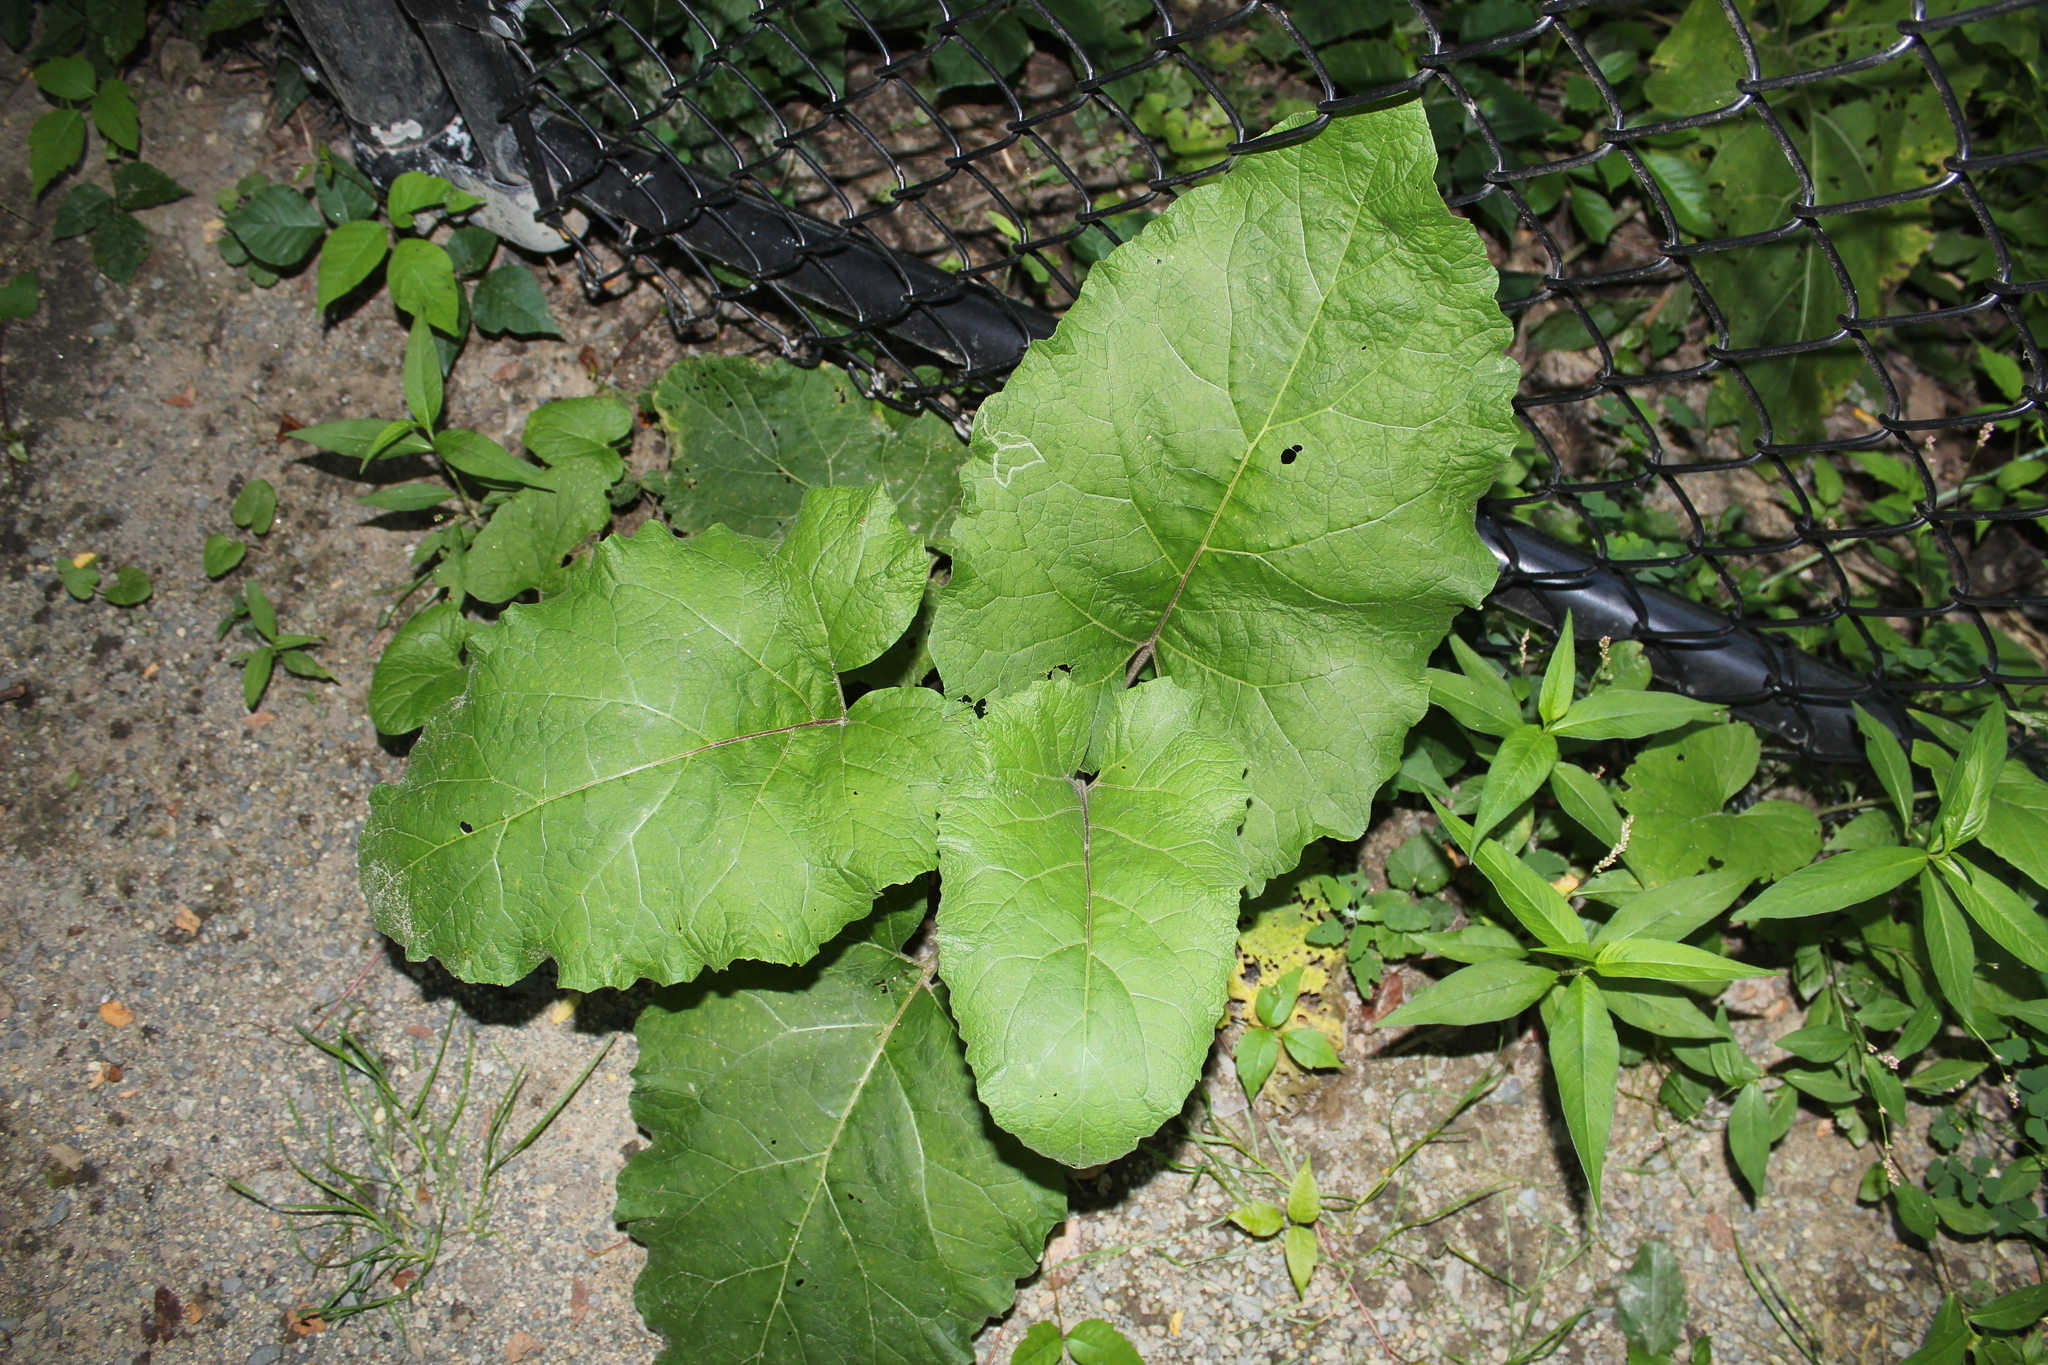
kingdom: Plantae
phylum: Tracheophyta
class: Magnoliopsida
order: Asterales
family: Asteraceae
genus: Arctium
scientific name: Arctium
